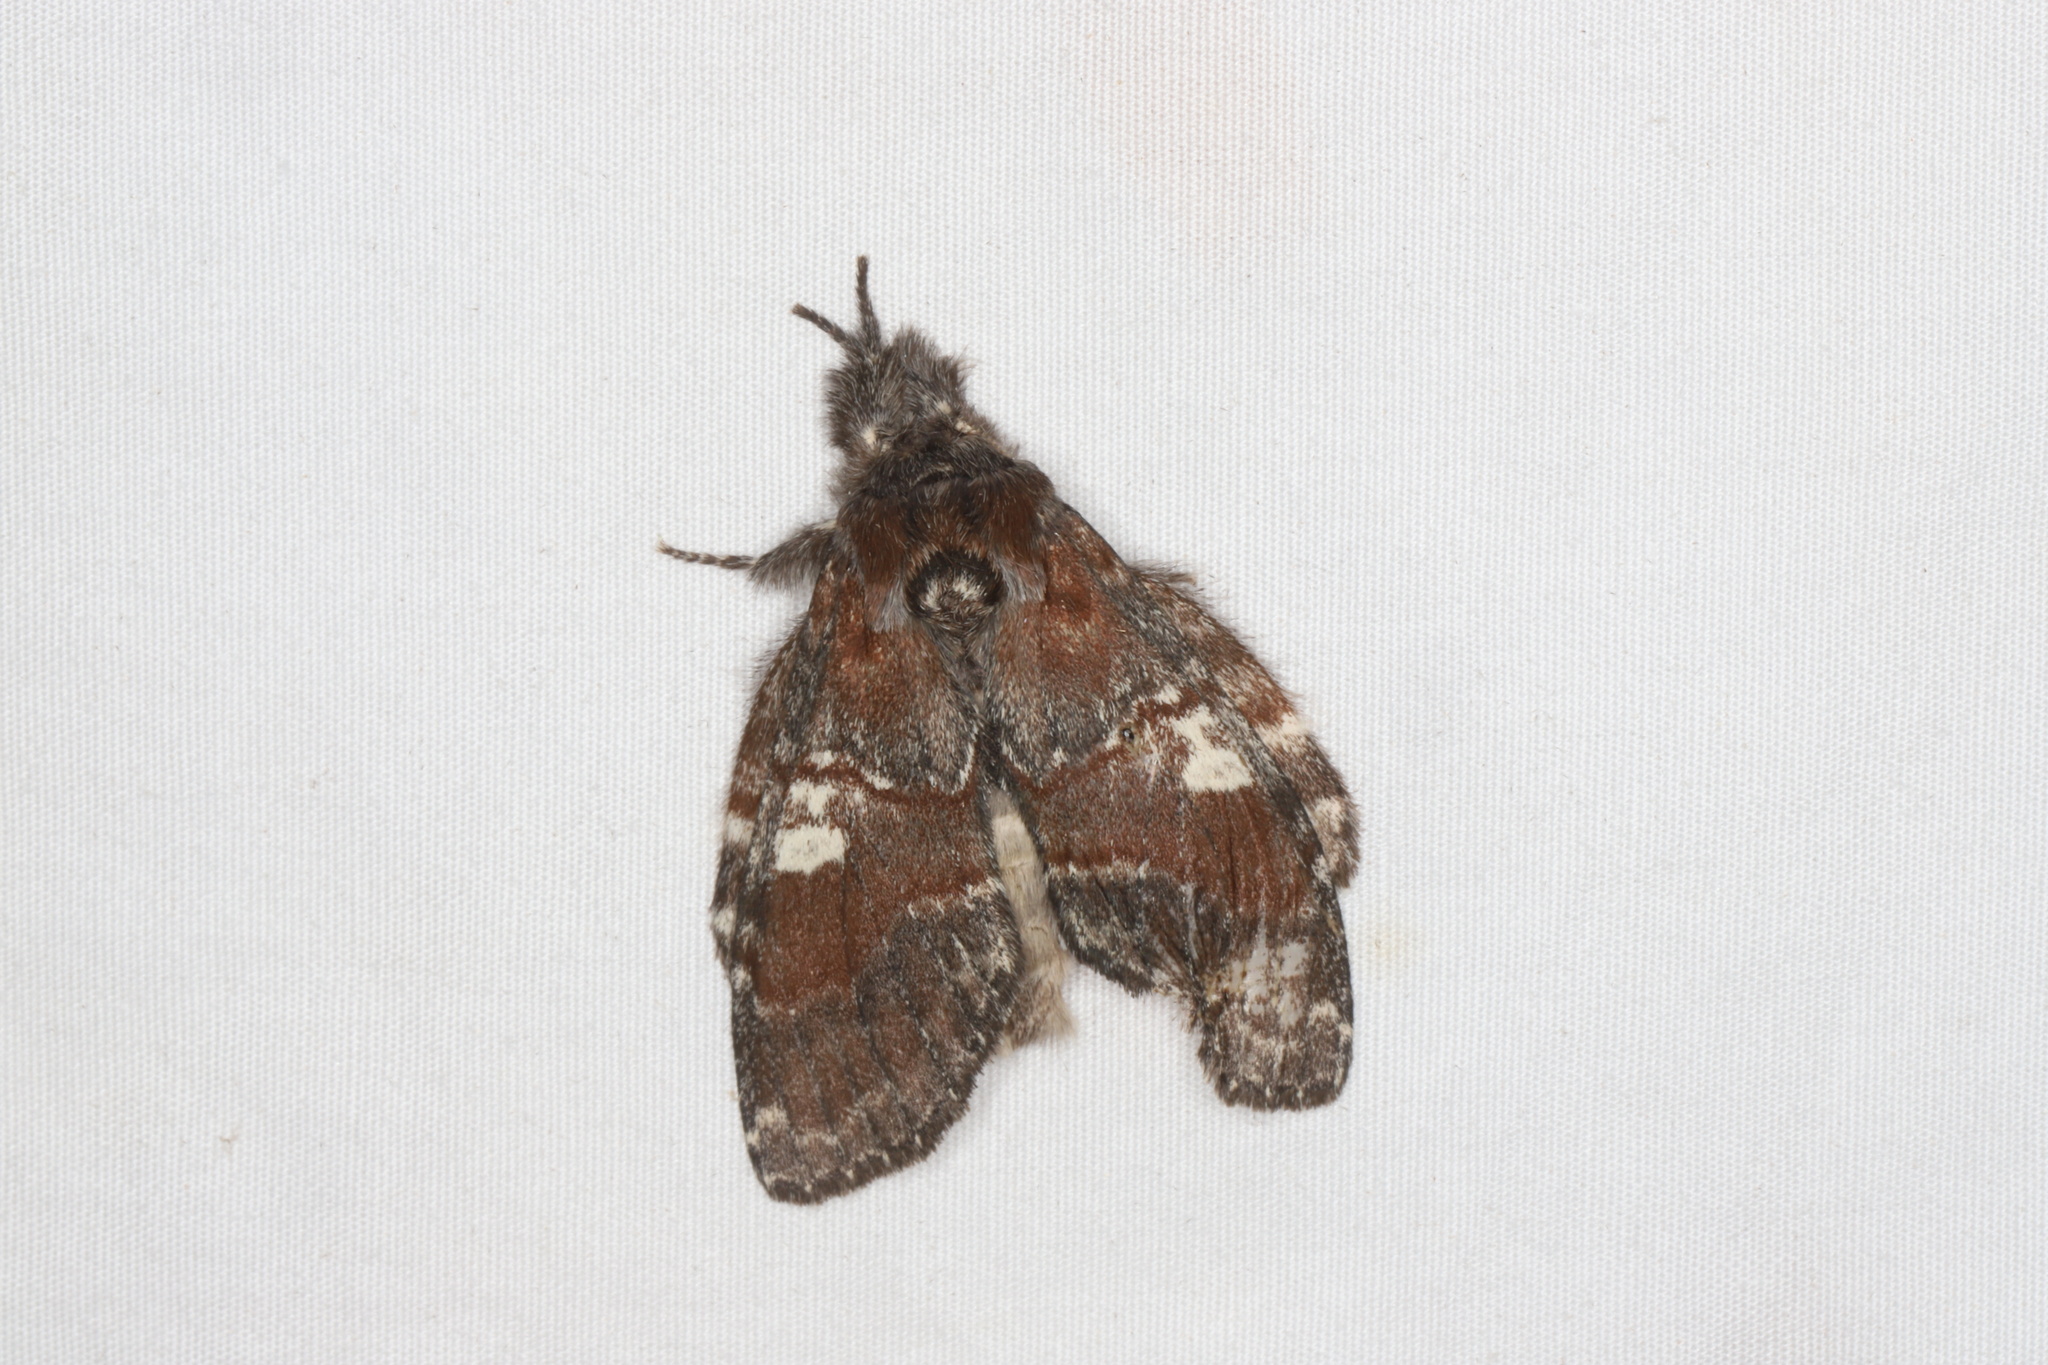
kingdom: Animalia
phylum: Arthropoda
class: Insecta
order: Lepidoptera
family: Notodontidae
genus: Peridea
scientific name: Peridea ferruginea
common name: Chocolate prominent
